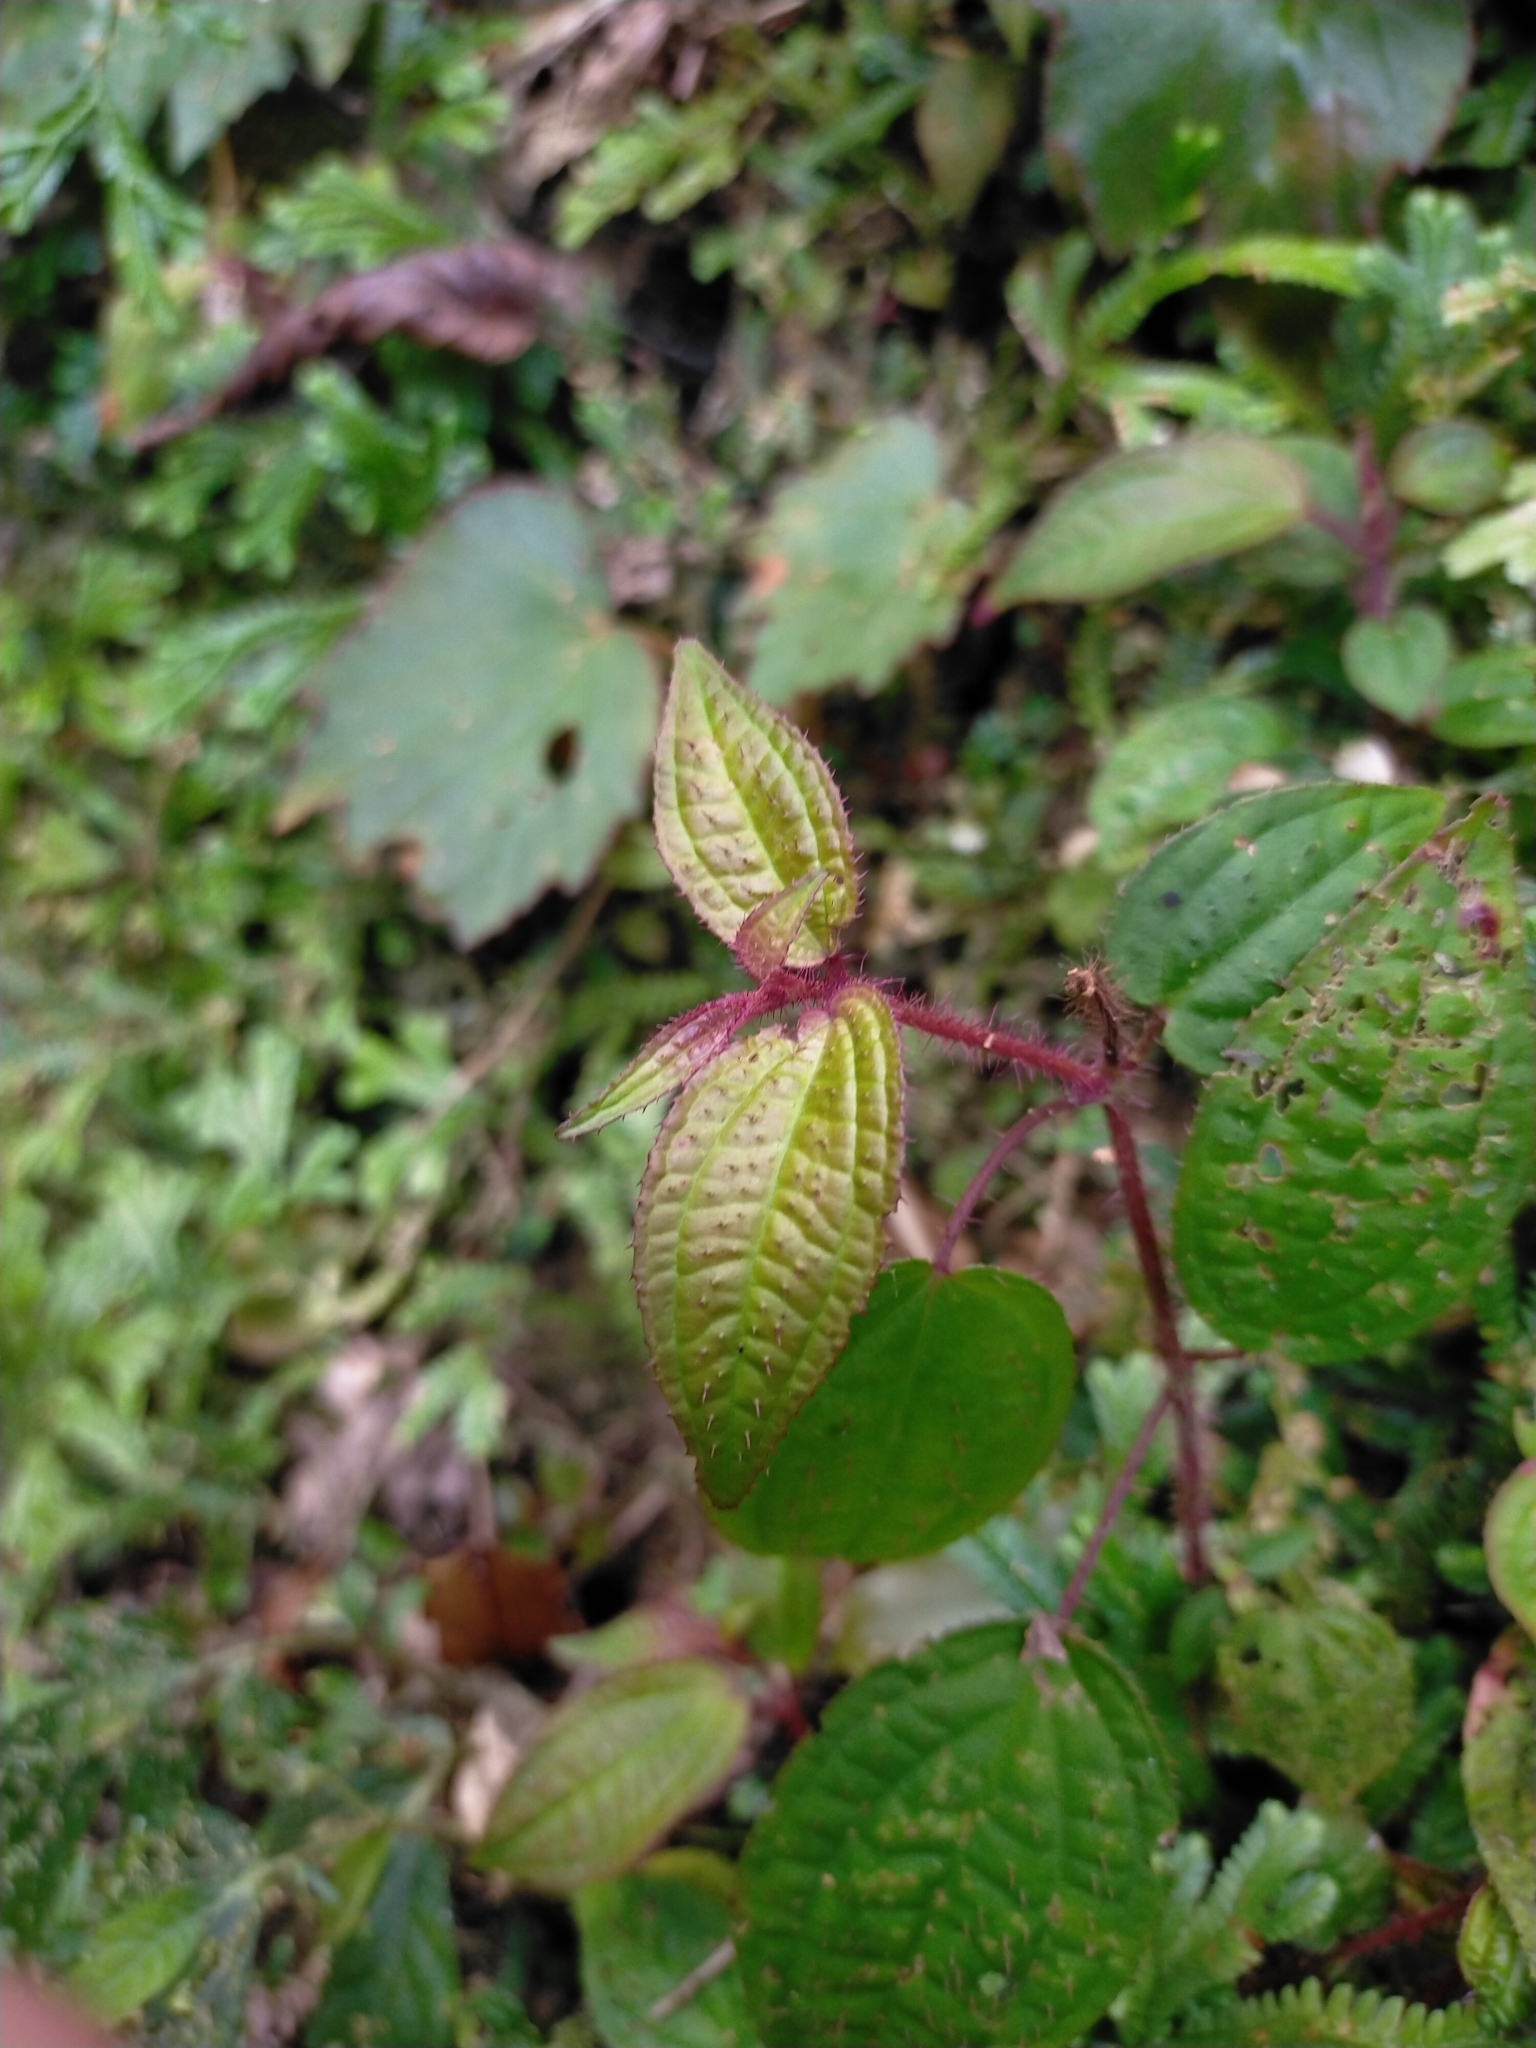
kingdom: Plantae
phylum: Tracheophyta
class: Magnoliopsida
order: Myrtales
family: Melastomataceae
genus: Bredia
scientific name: Bredia hirsuta
